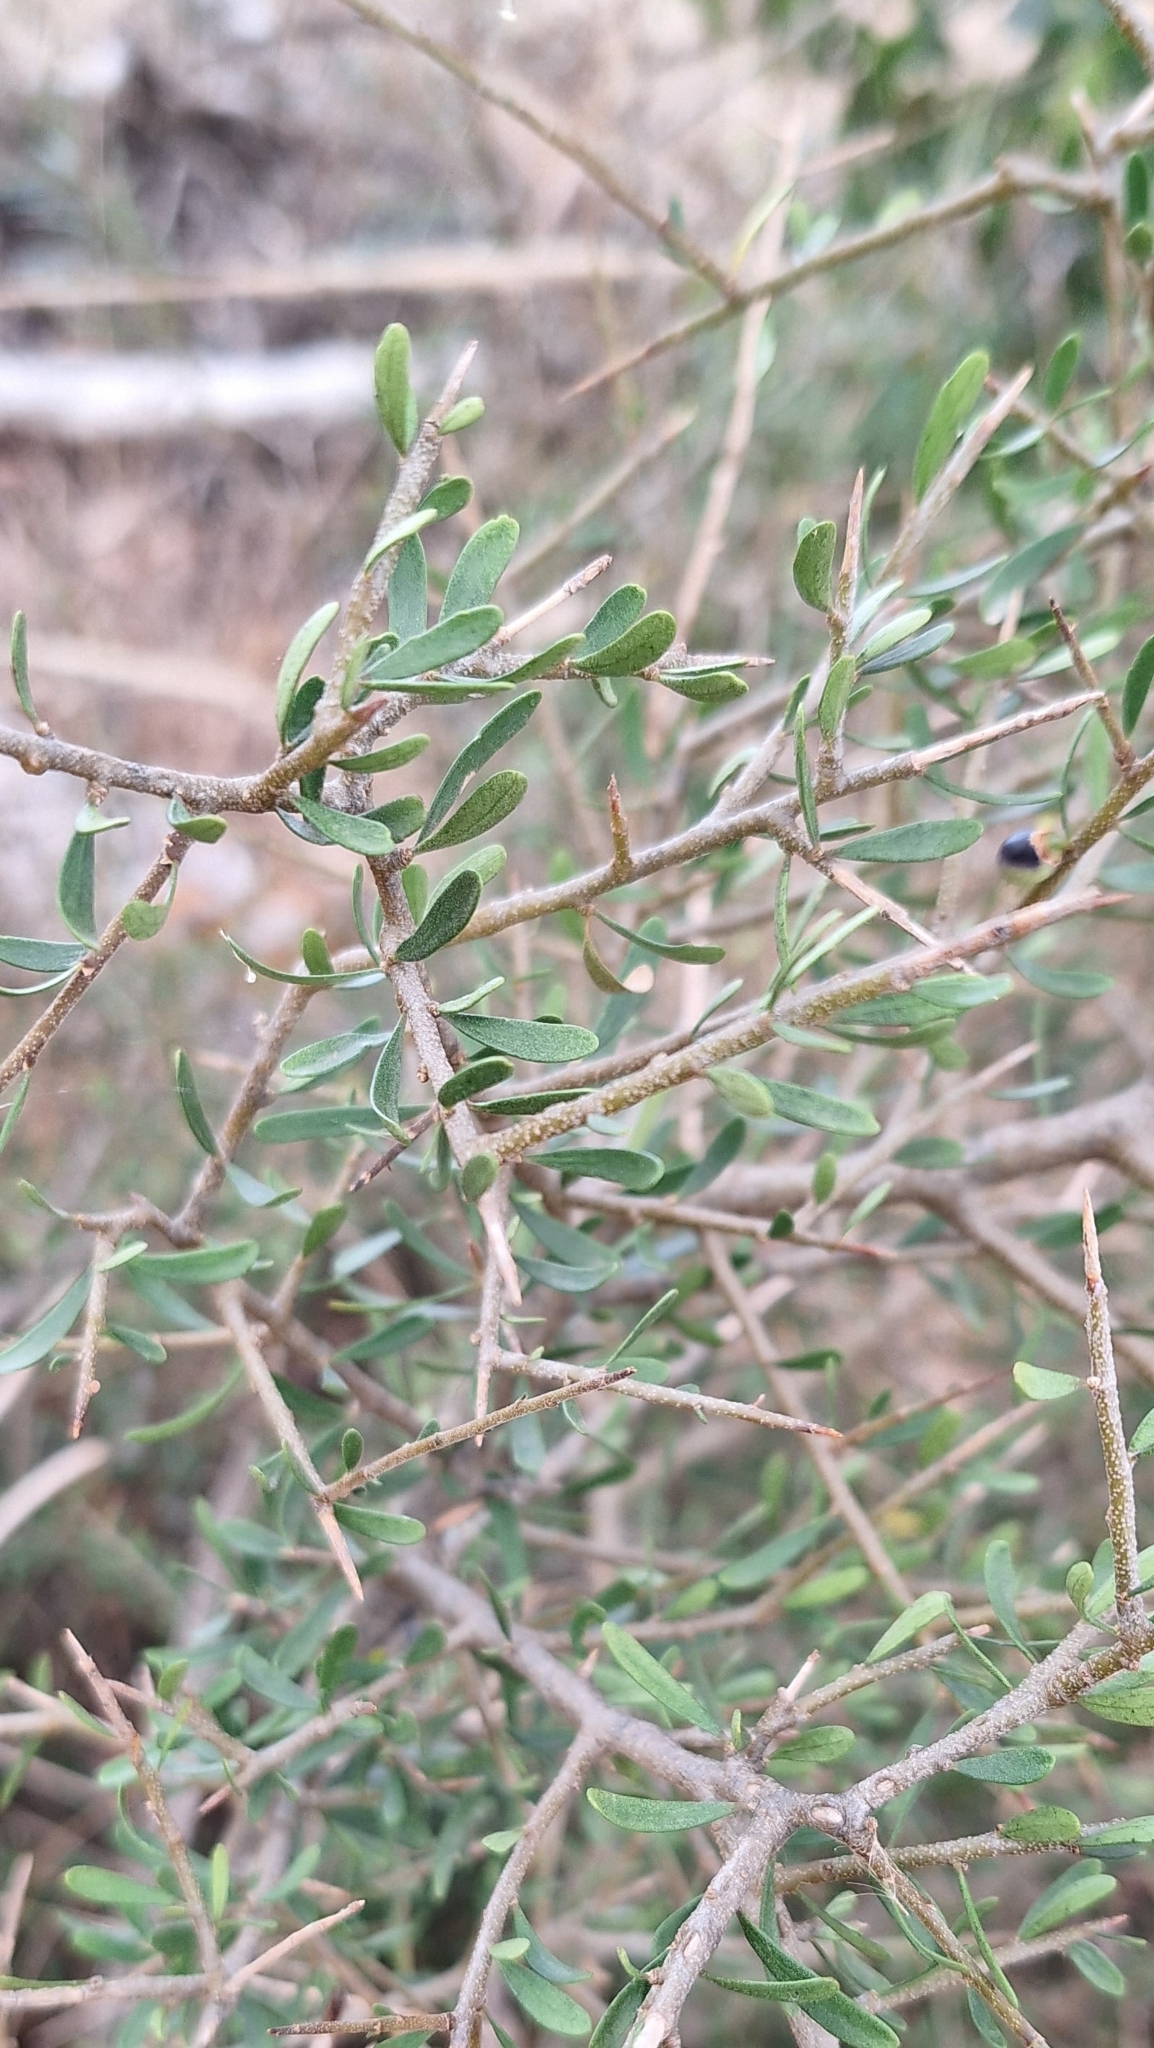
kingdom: Plantae
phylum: Tracheophyta
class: Magnoliopsida
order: Malpighiales
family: Violaceae
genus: Melicytus
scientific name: Melicytus dentatus
